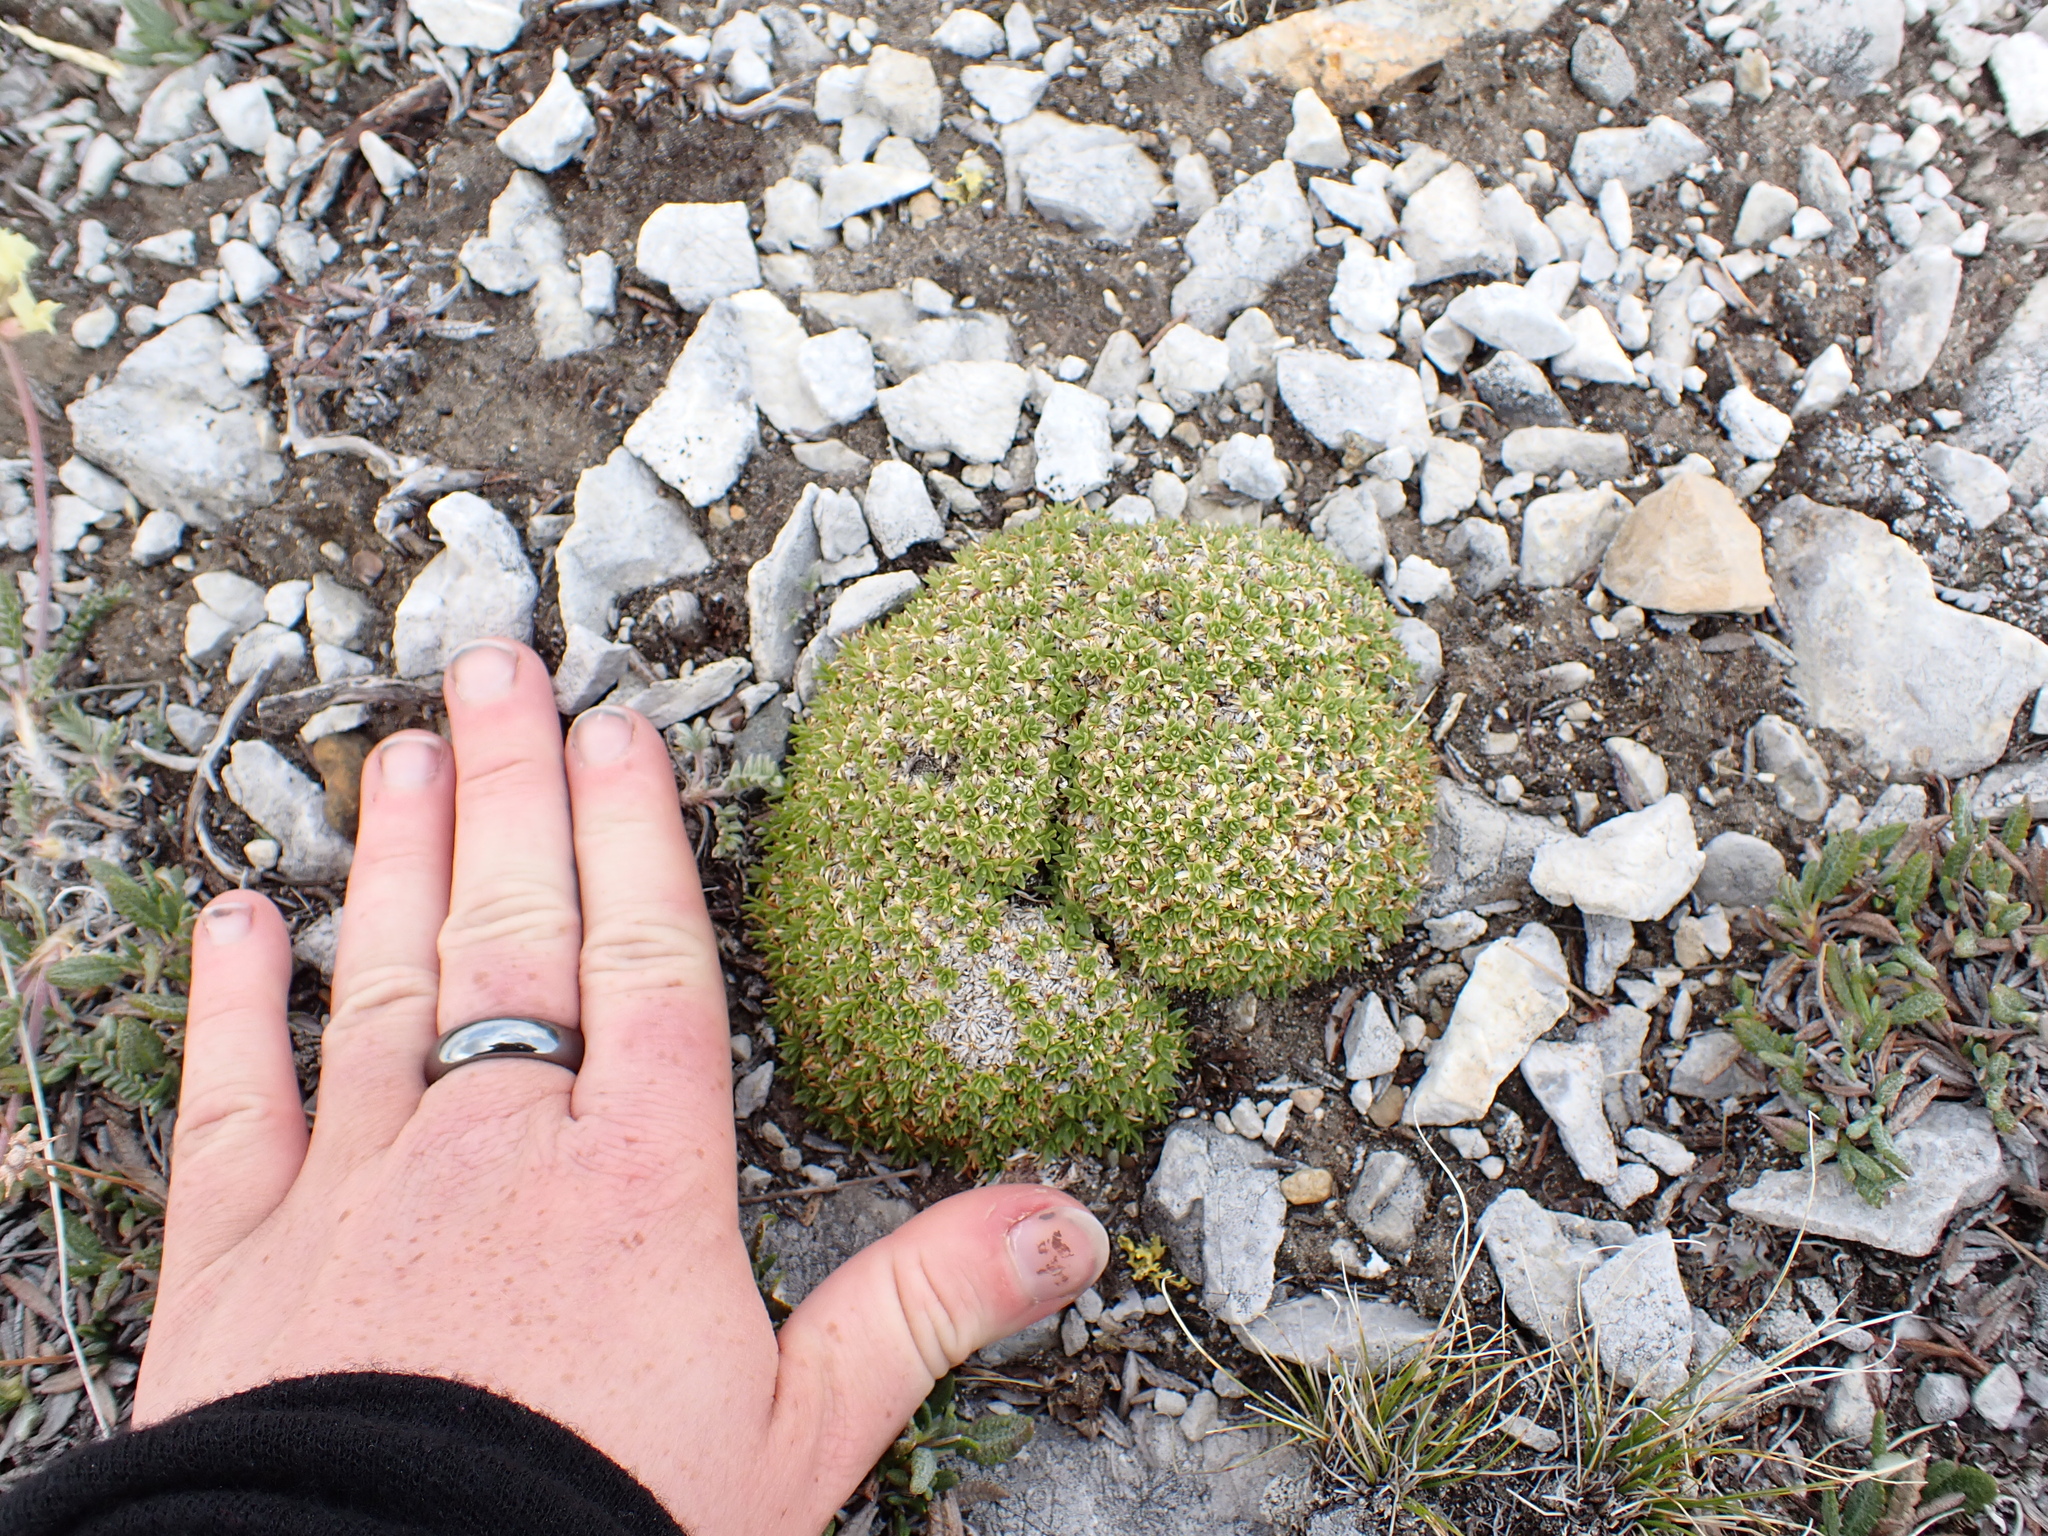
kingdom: Plantae
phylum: Tracheophyta
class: Magnoliopsida
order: Caryophyllales
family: Caryophyllaceae
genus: Silene
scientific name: Silene acaulis
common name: Moss campion
